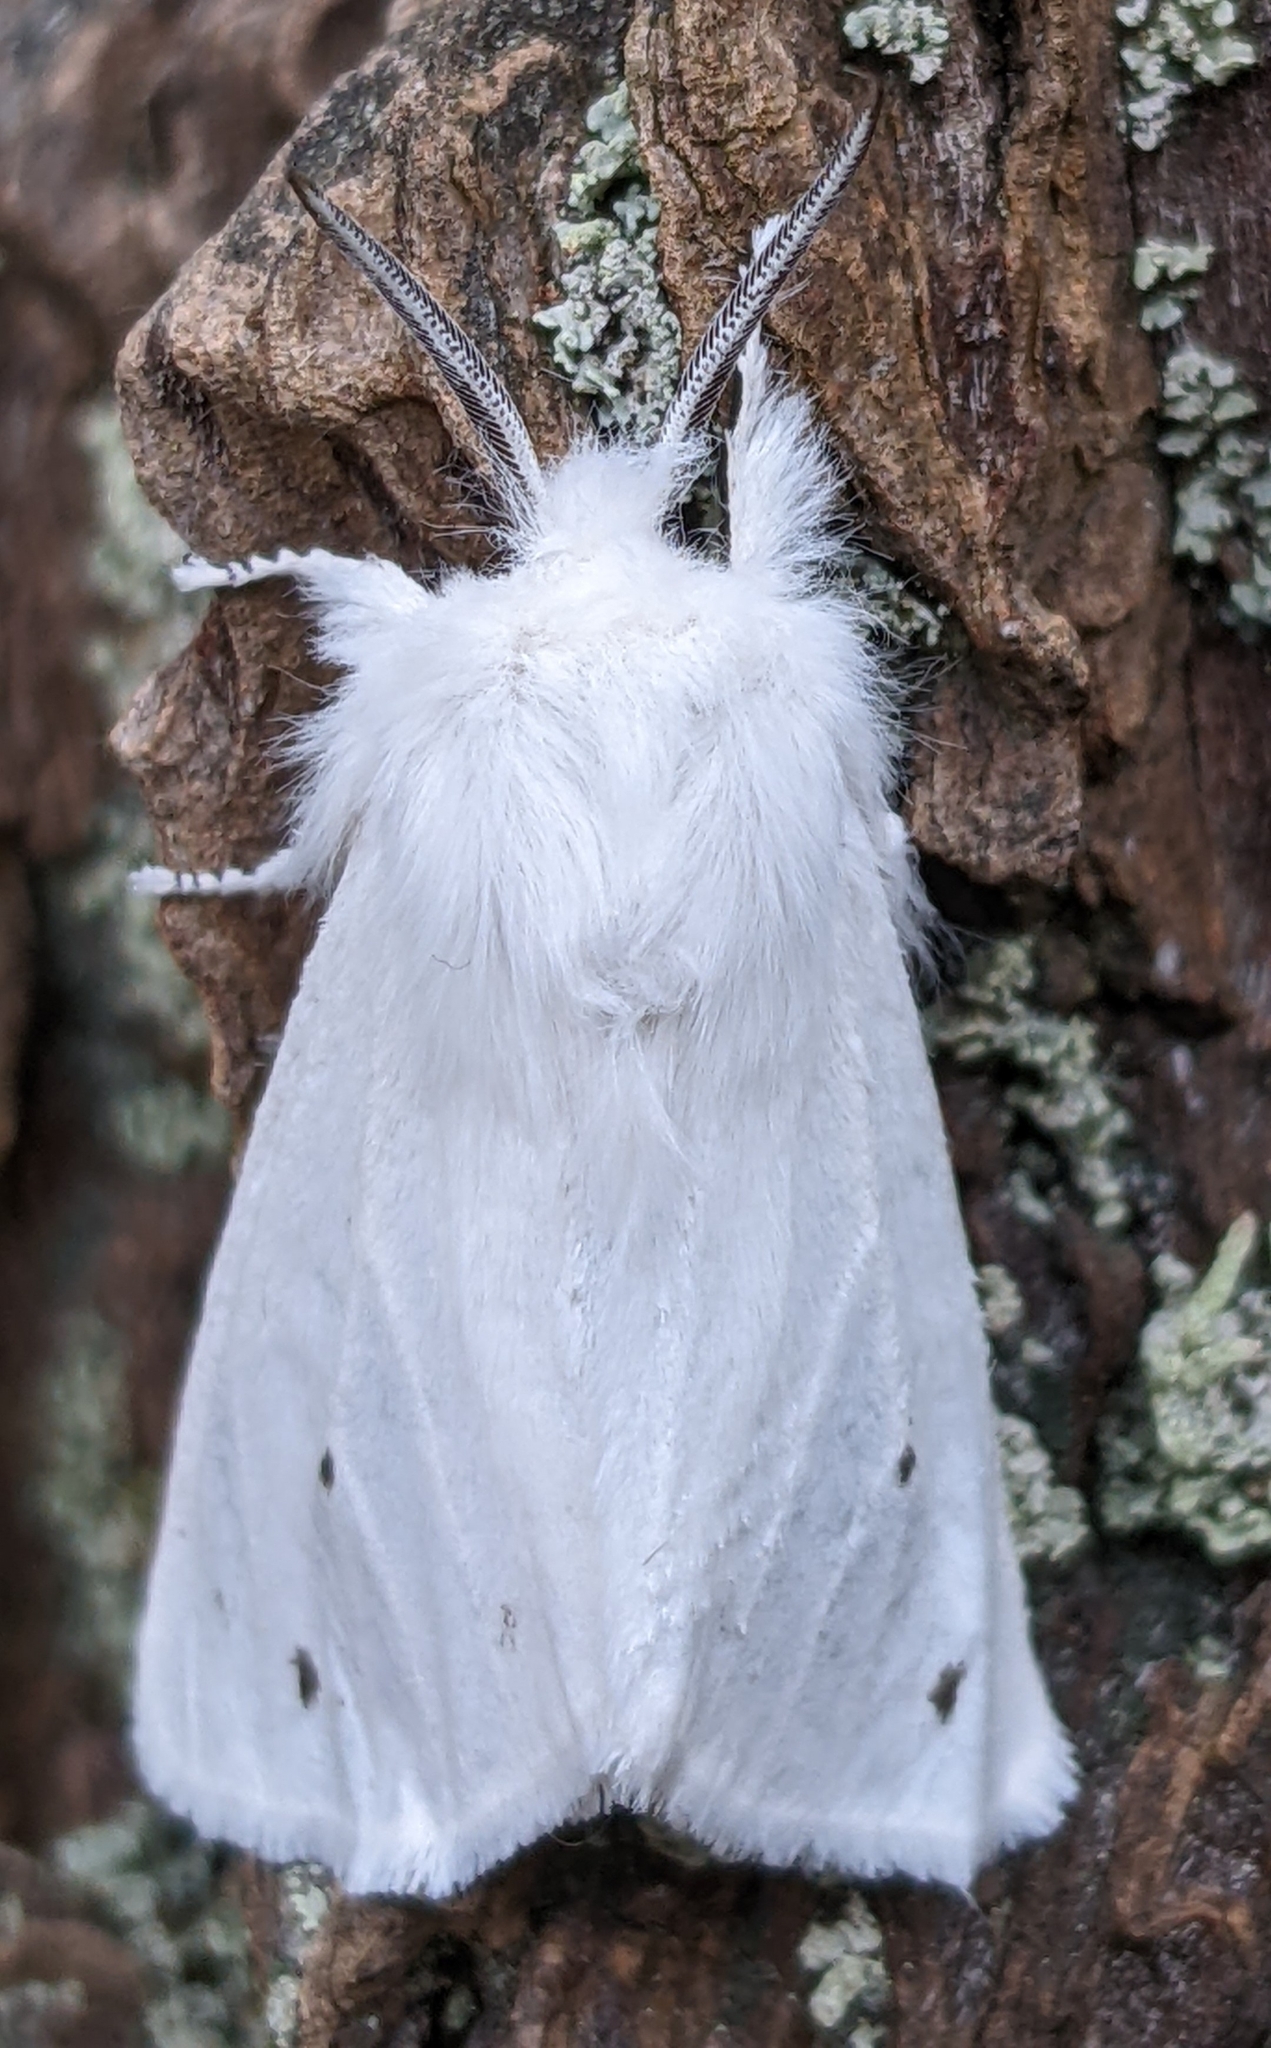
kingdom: Animalia
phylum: Arthropoda
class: Insecta
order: Lepidoptera
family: Erebidae
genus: Spilosoma
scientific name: Spilosoma virginica
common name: Virginia tiger moth
